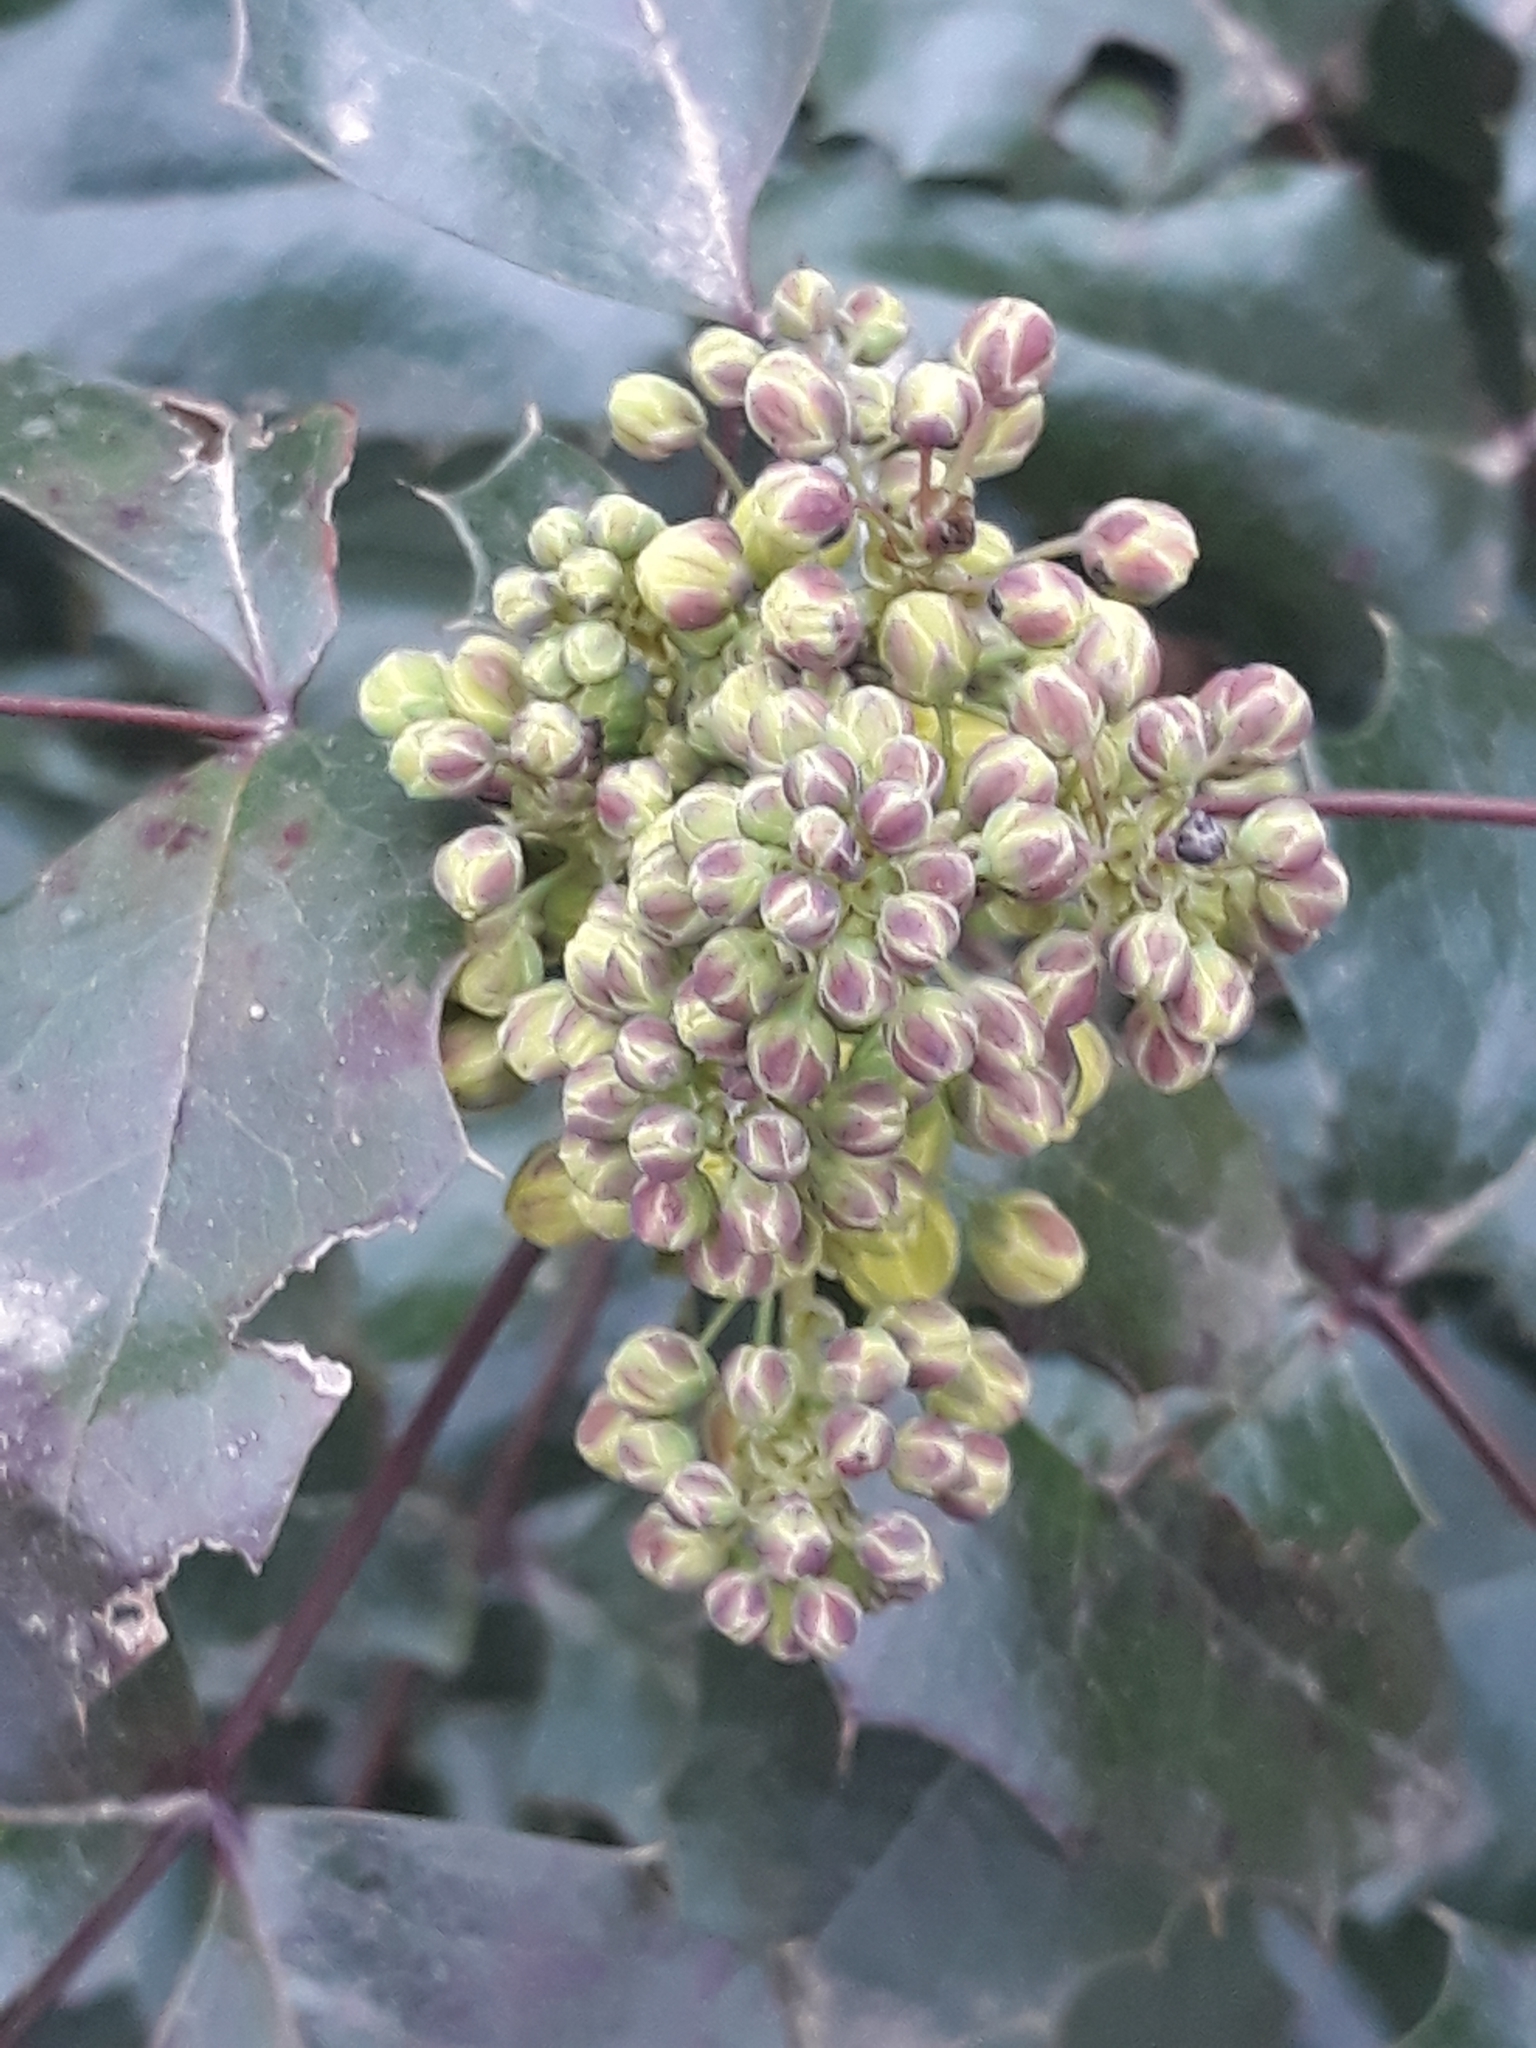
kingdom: Plantae
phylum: Tracheophyta
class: Magnoliopsida
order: Ranunculales
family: Berberidaceae
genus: Mahonia
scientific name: Mahonia aquifolium
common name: Oregon-grape
